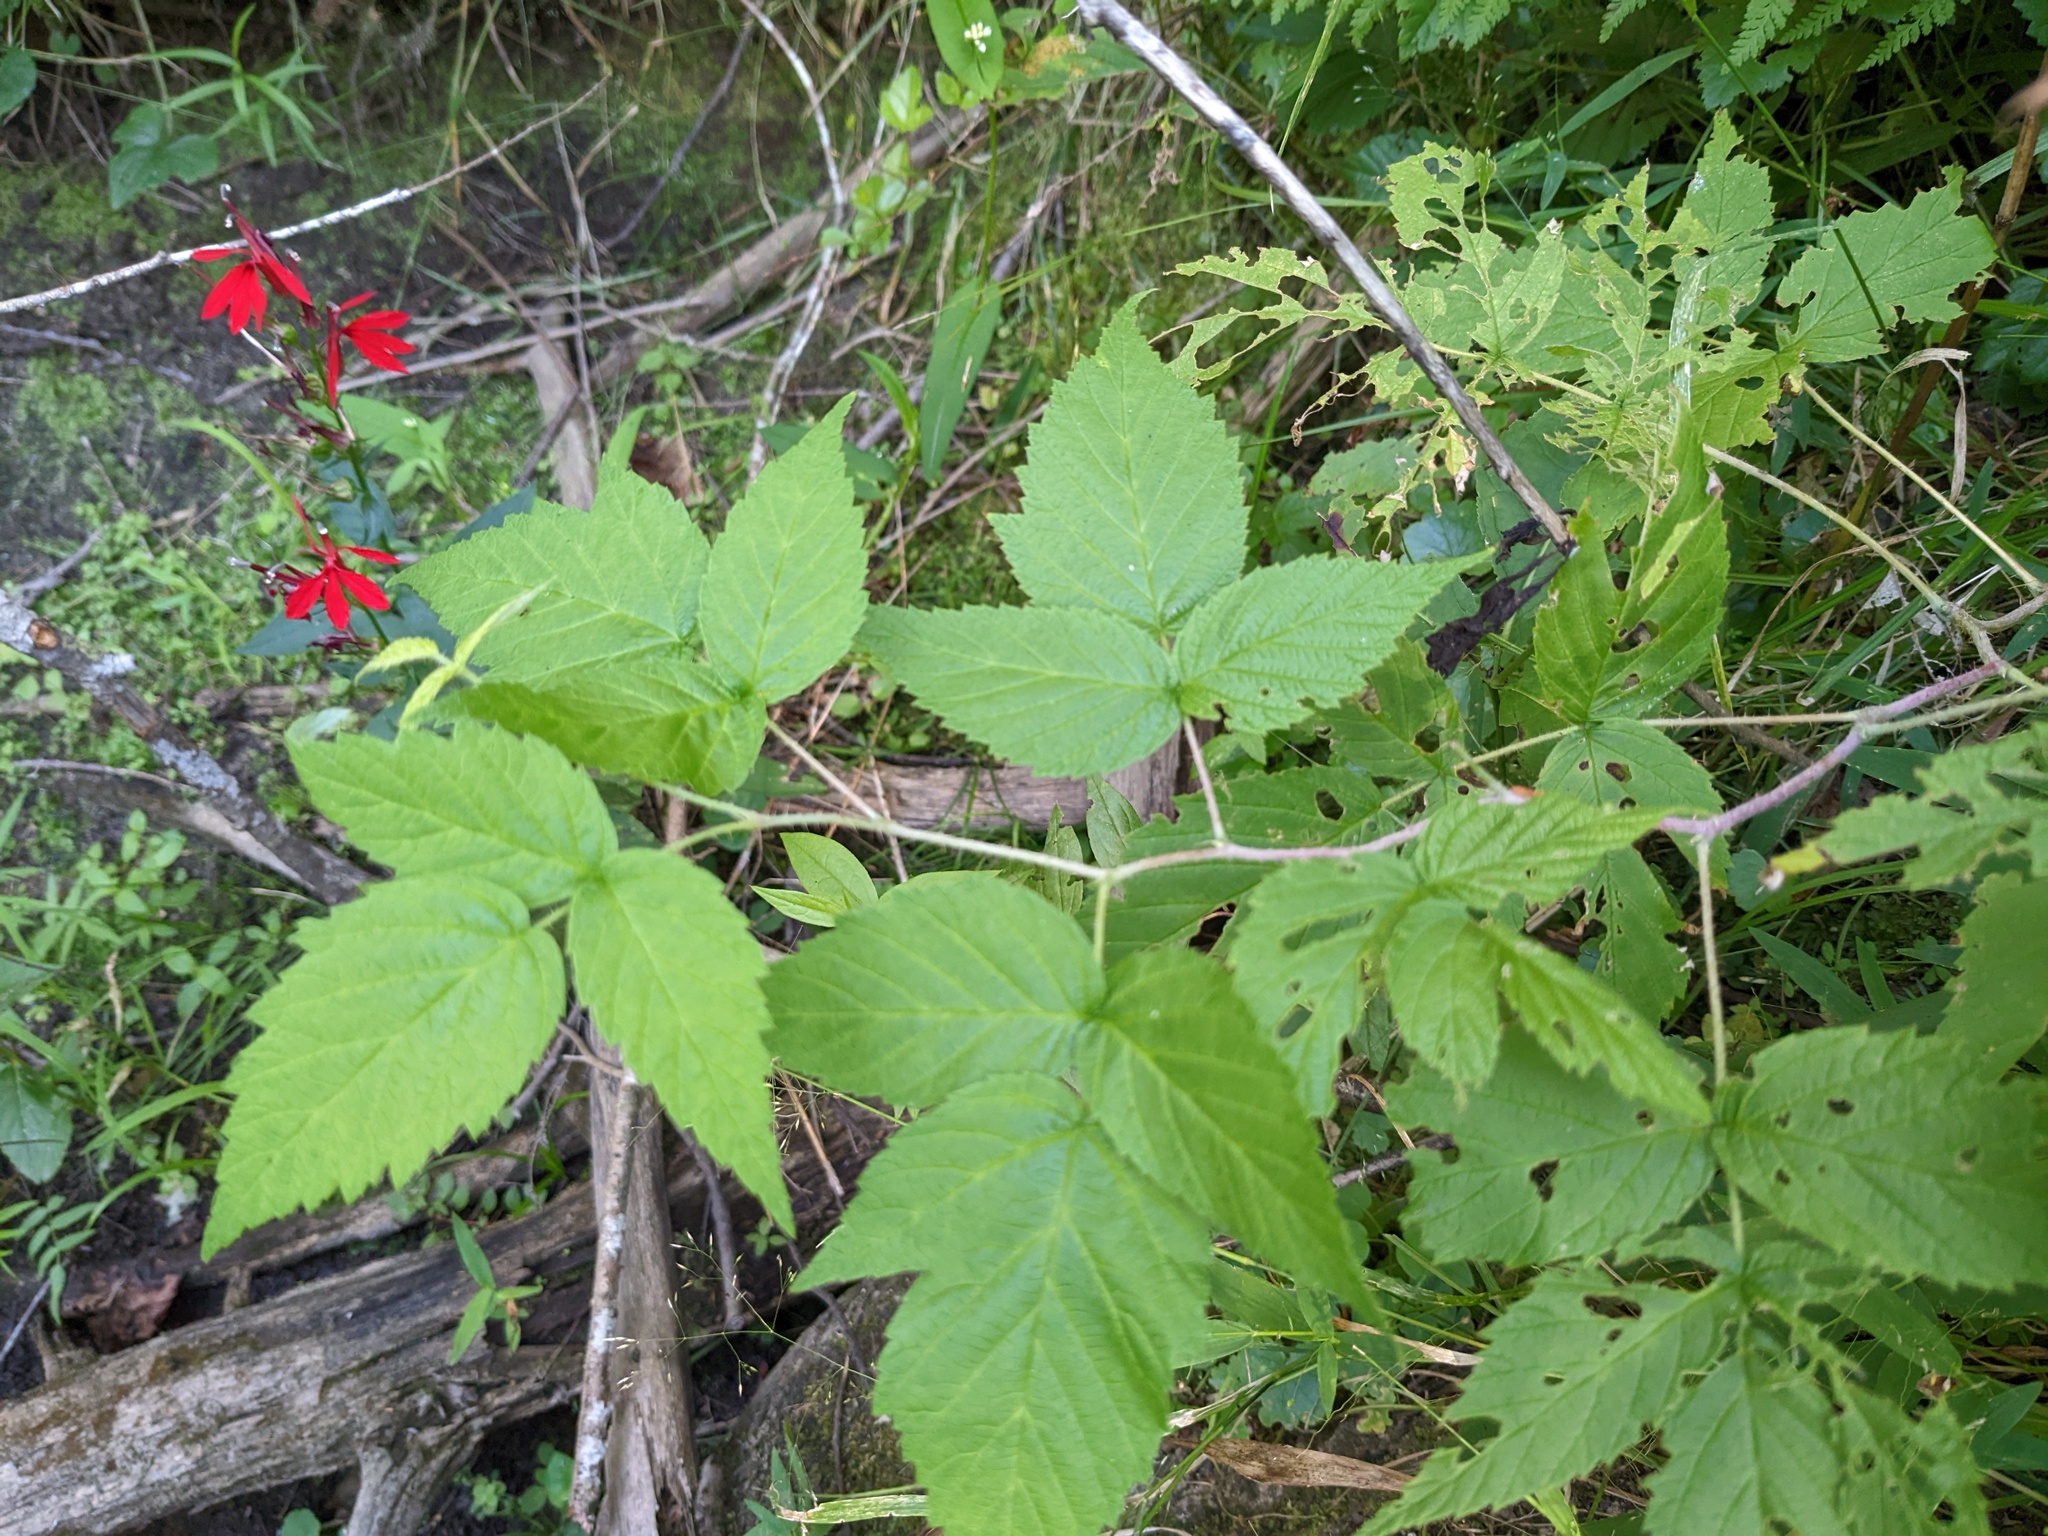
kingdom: Plantae
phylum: Tracheophyta
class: Magnoliopsida
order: Rosales
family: Rosaceae
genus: Rubus
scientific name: Rubus occidentalis
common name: Black raspberry
